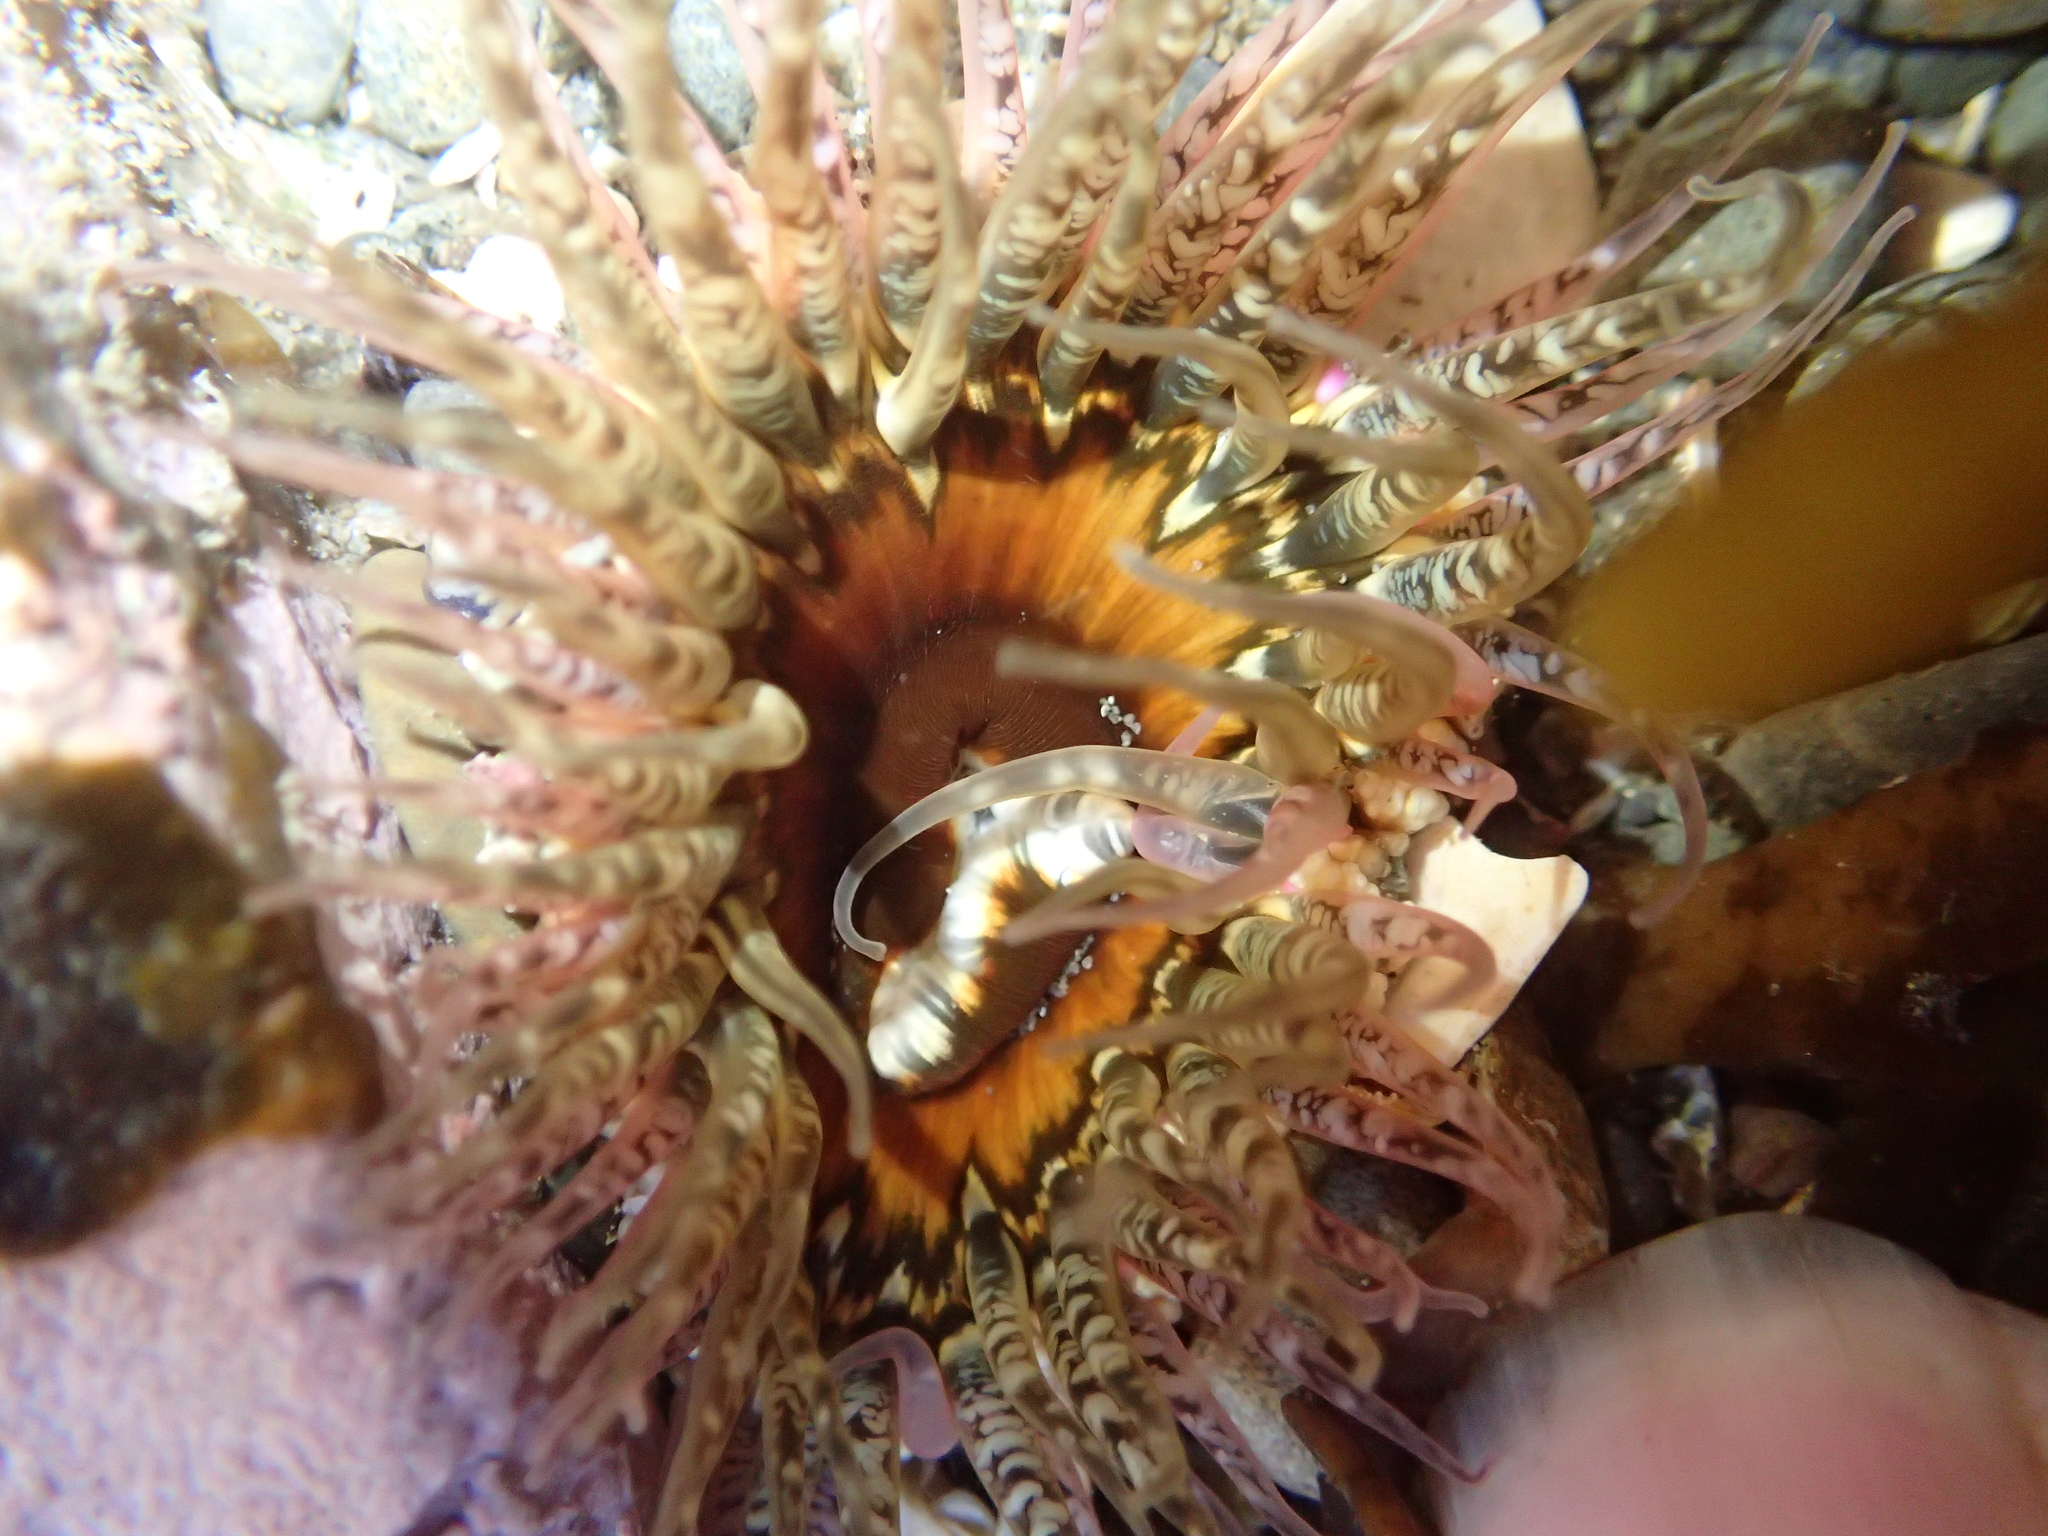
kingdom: Animalia
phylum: Cnidaria
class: Anthozoa
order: Actiniaria
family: Actiniidae
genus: Oulactis
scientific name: Oulactis muscosa
